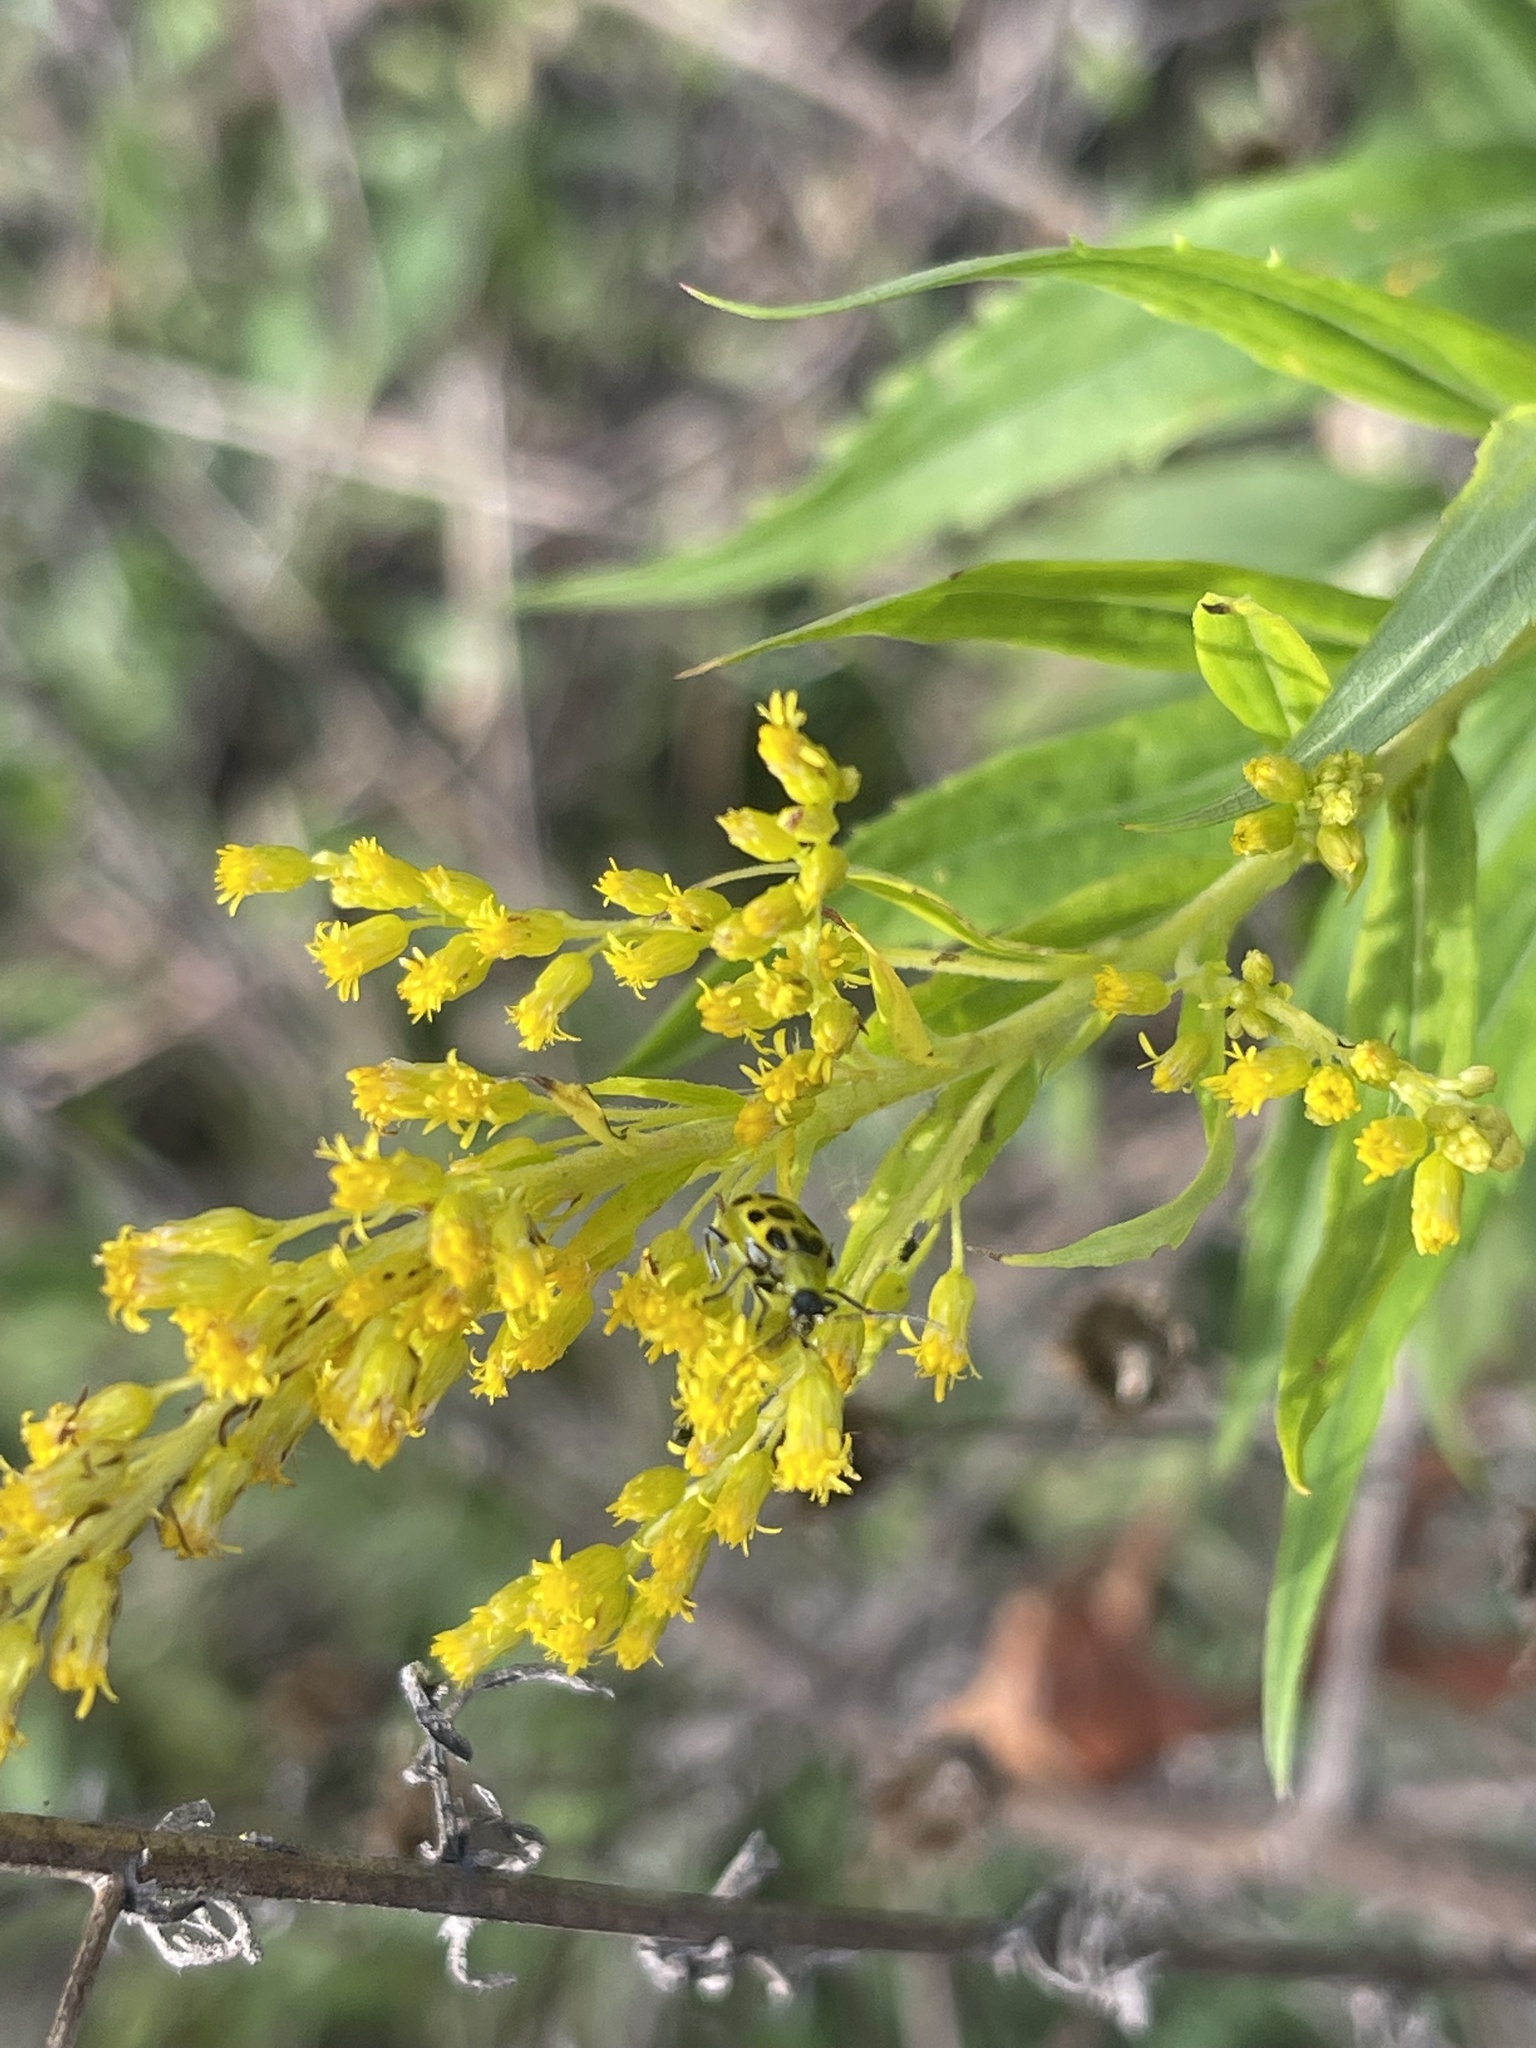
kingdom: Animalia
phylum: Arthropoda
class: Insecta
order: Coleoptera
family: Chrysomelidae
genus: Diabrotica
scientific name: Diabrotica undecimpunctata
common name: Spotted cucumber beetle
